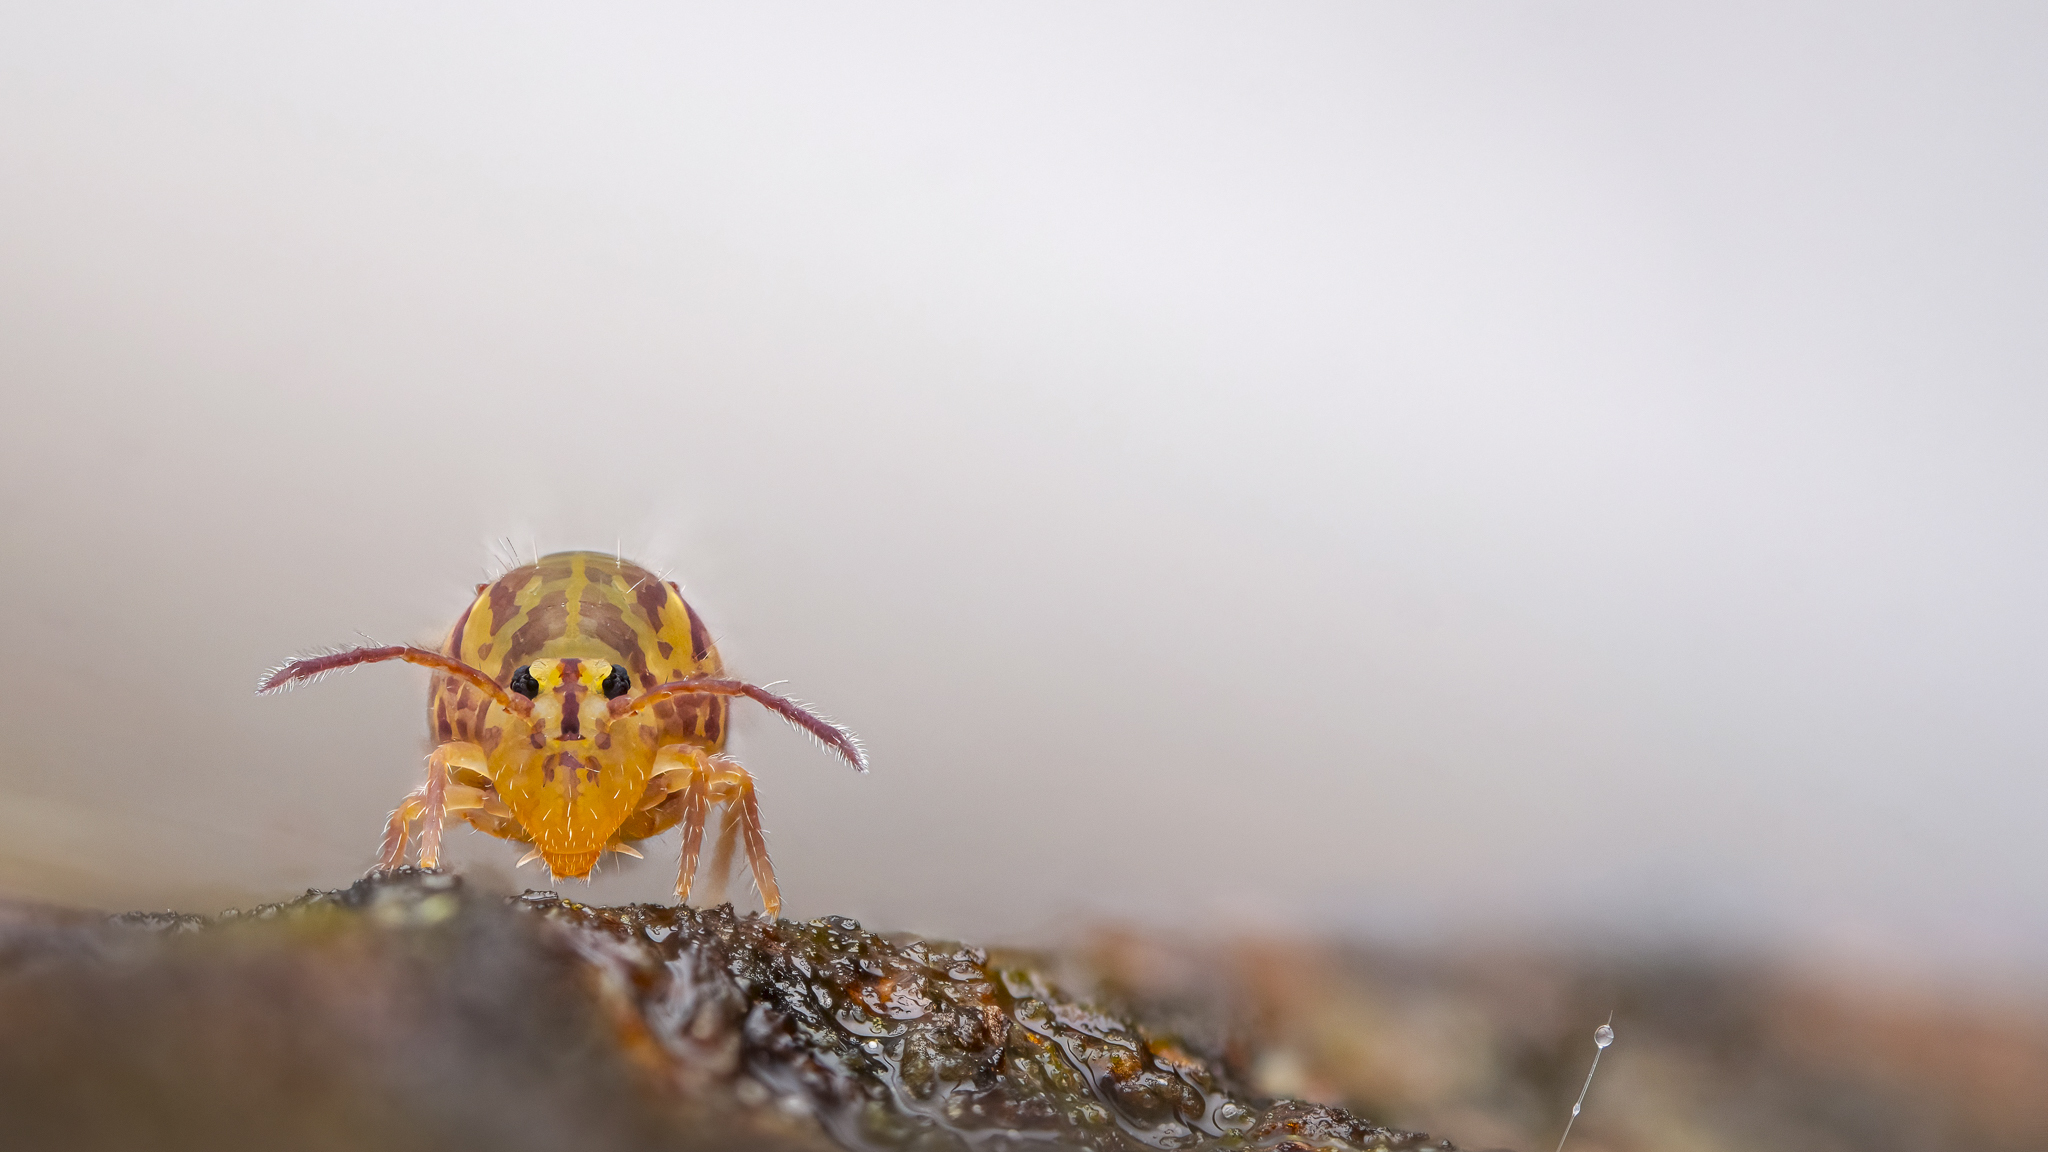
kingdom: Animalia
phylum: Arthropoda
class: Collembola
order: Symphypleona
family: Dicyrtomidae
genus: Dicyrtomina
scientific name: Dicyrtomina ornata
